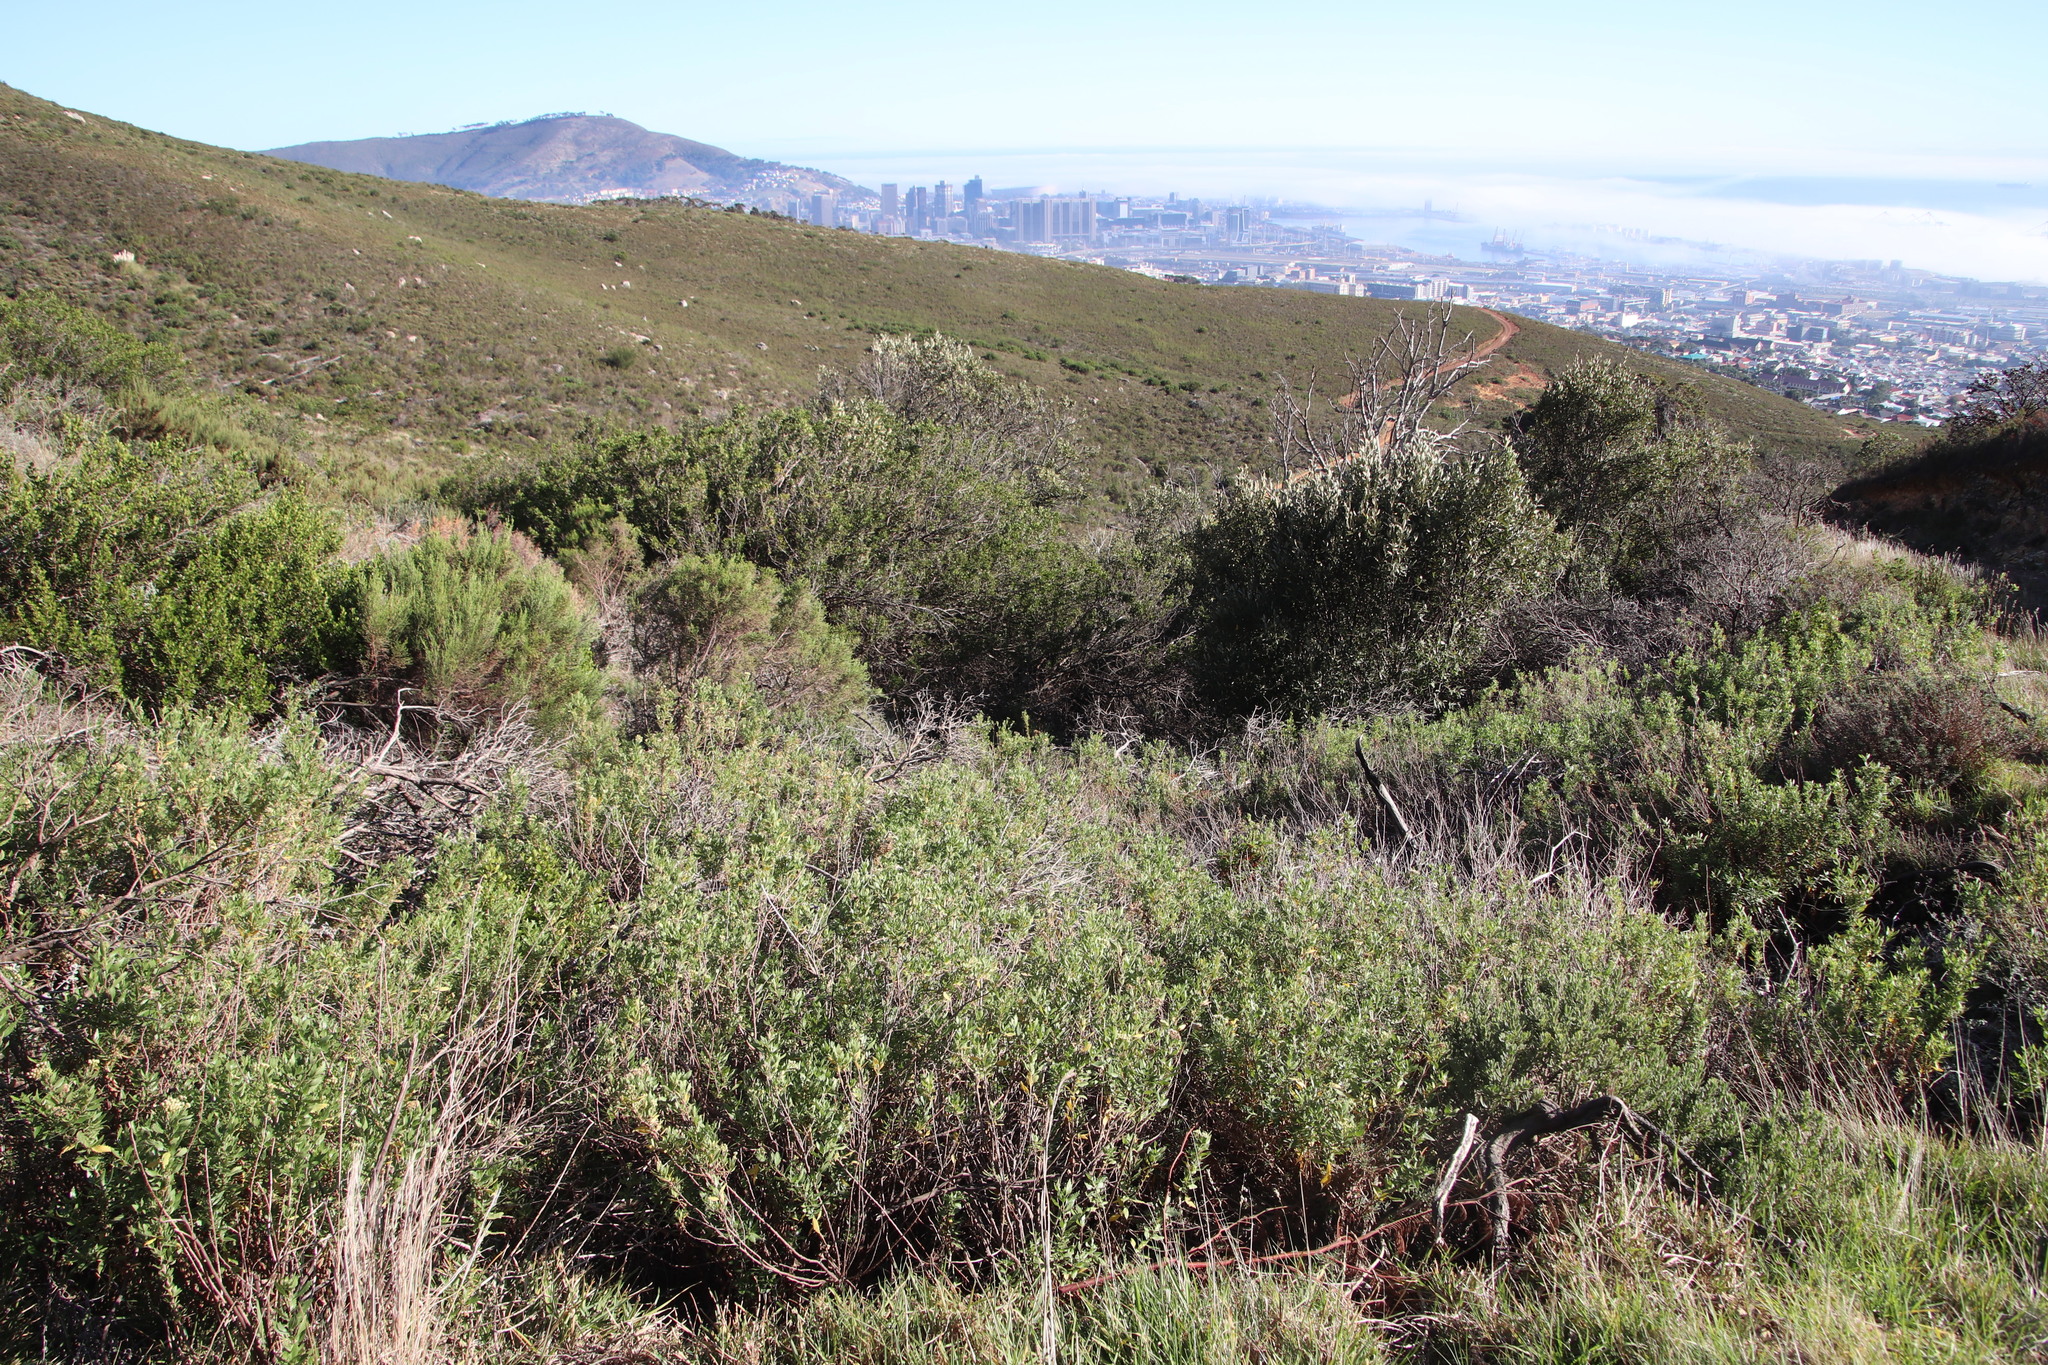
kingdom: Plantae
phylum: Tracheophyta
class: Magnoliopsida
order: Asterales
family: Asteraceae
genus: Nidorella
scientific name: Nidorella ivifolia
